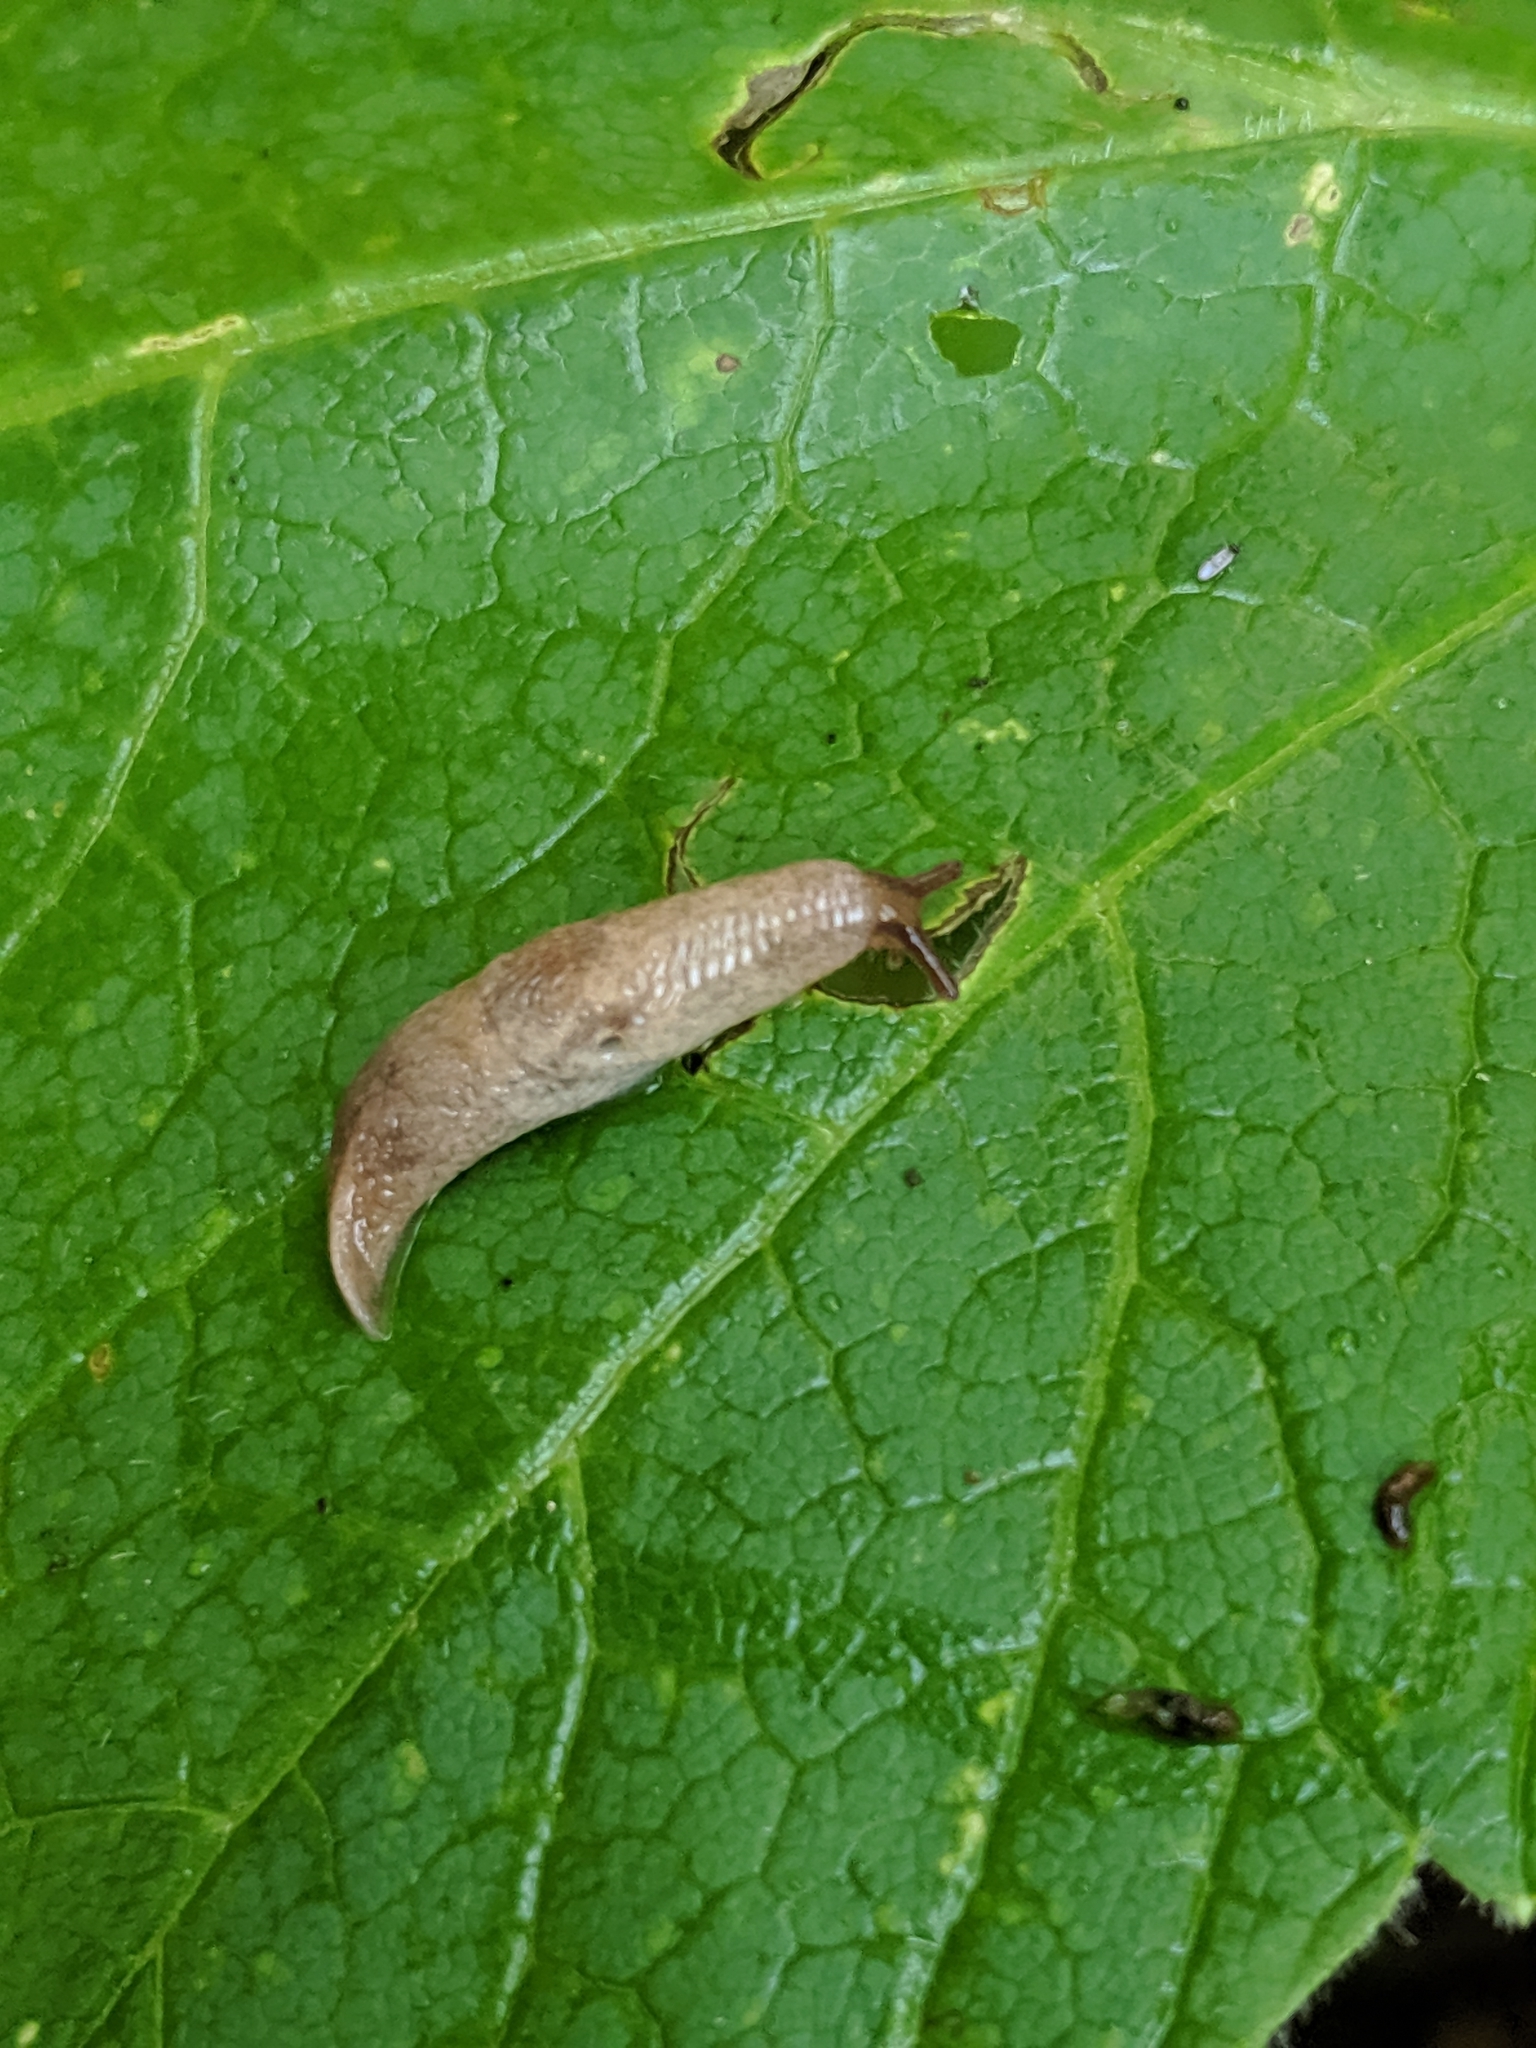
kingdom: Animalia
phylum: Mollusca
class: Gastropoda
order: Stylommatophora
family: Agriolimacidae
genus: Deroceras
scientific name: Deroceras reticulatum
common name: Gray field slug
